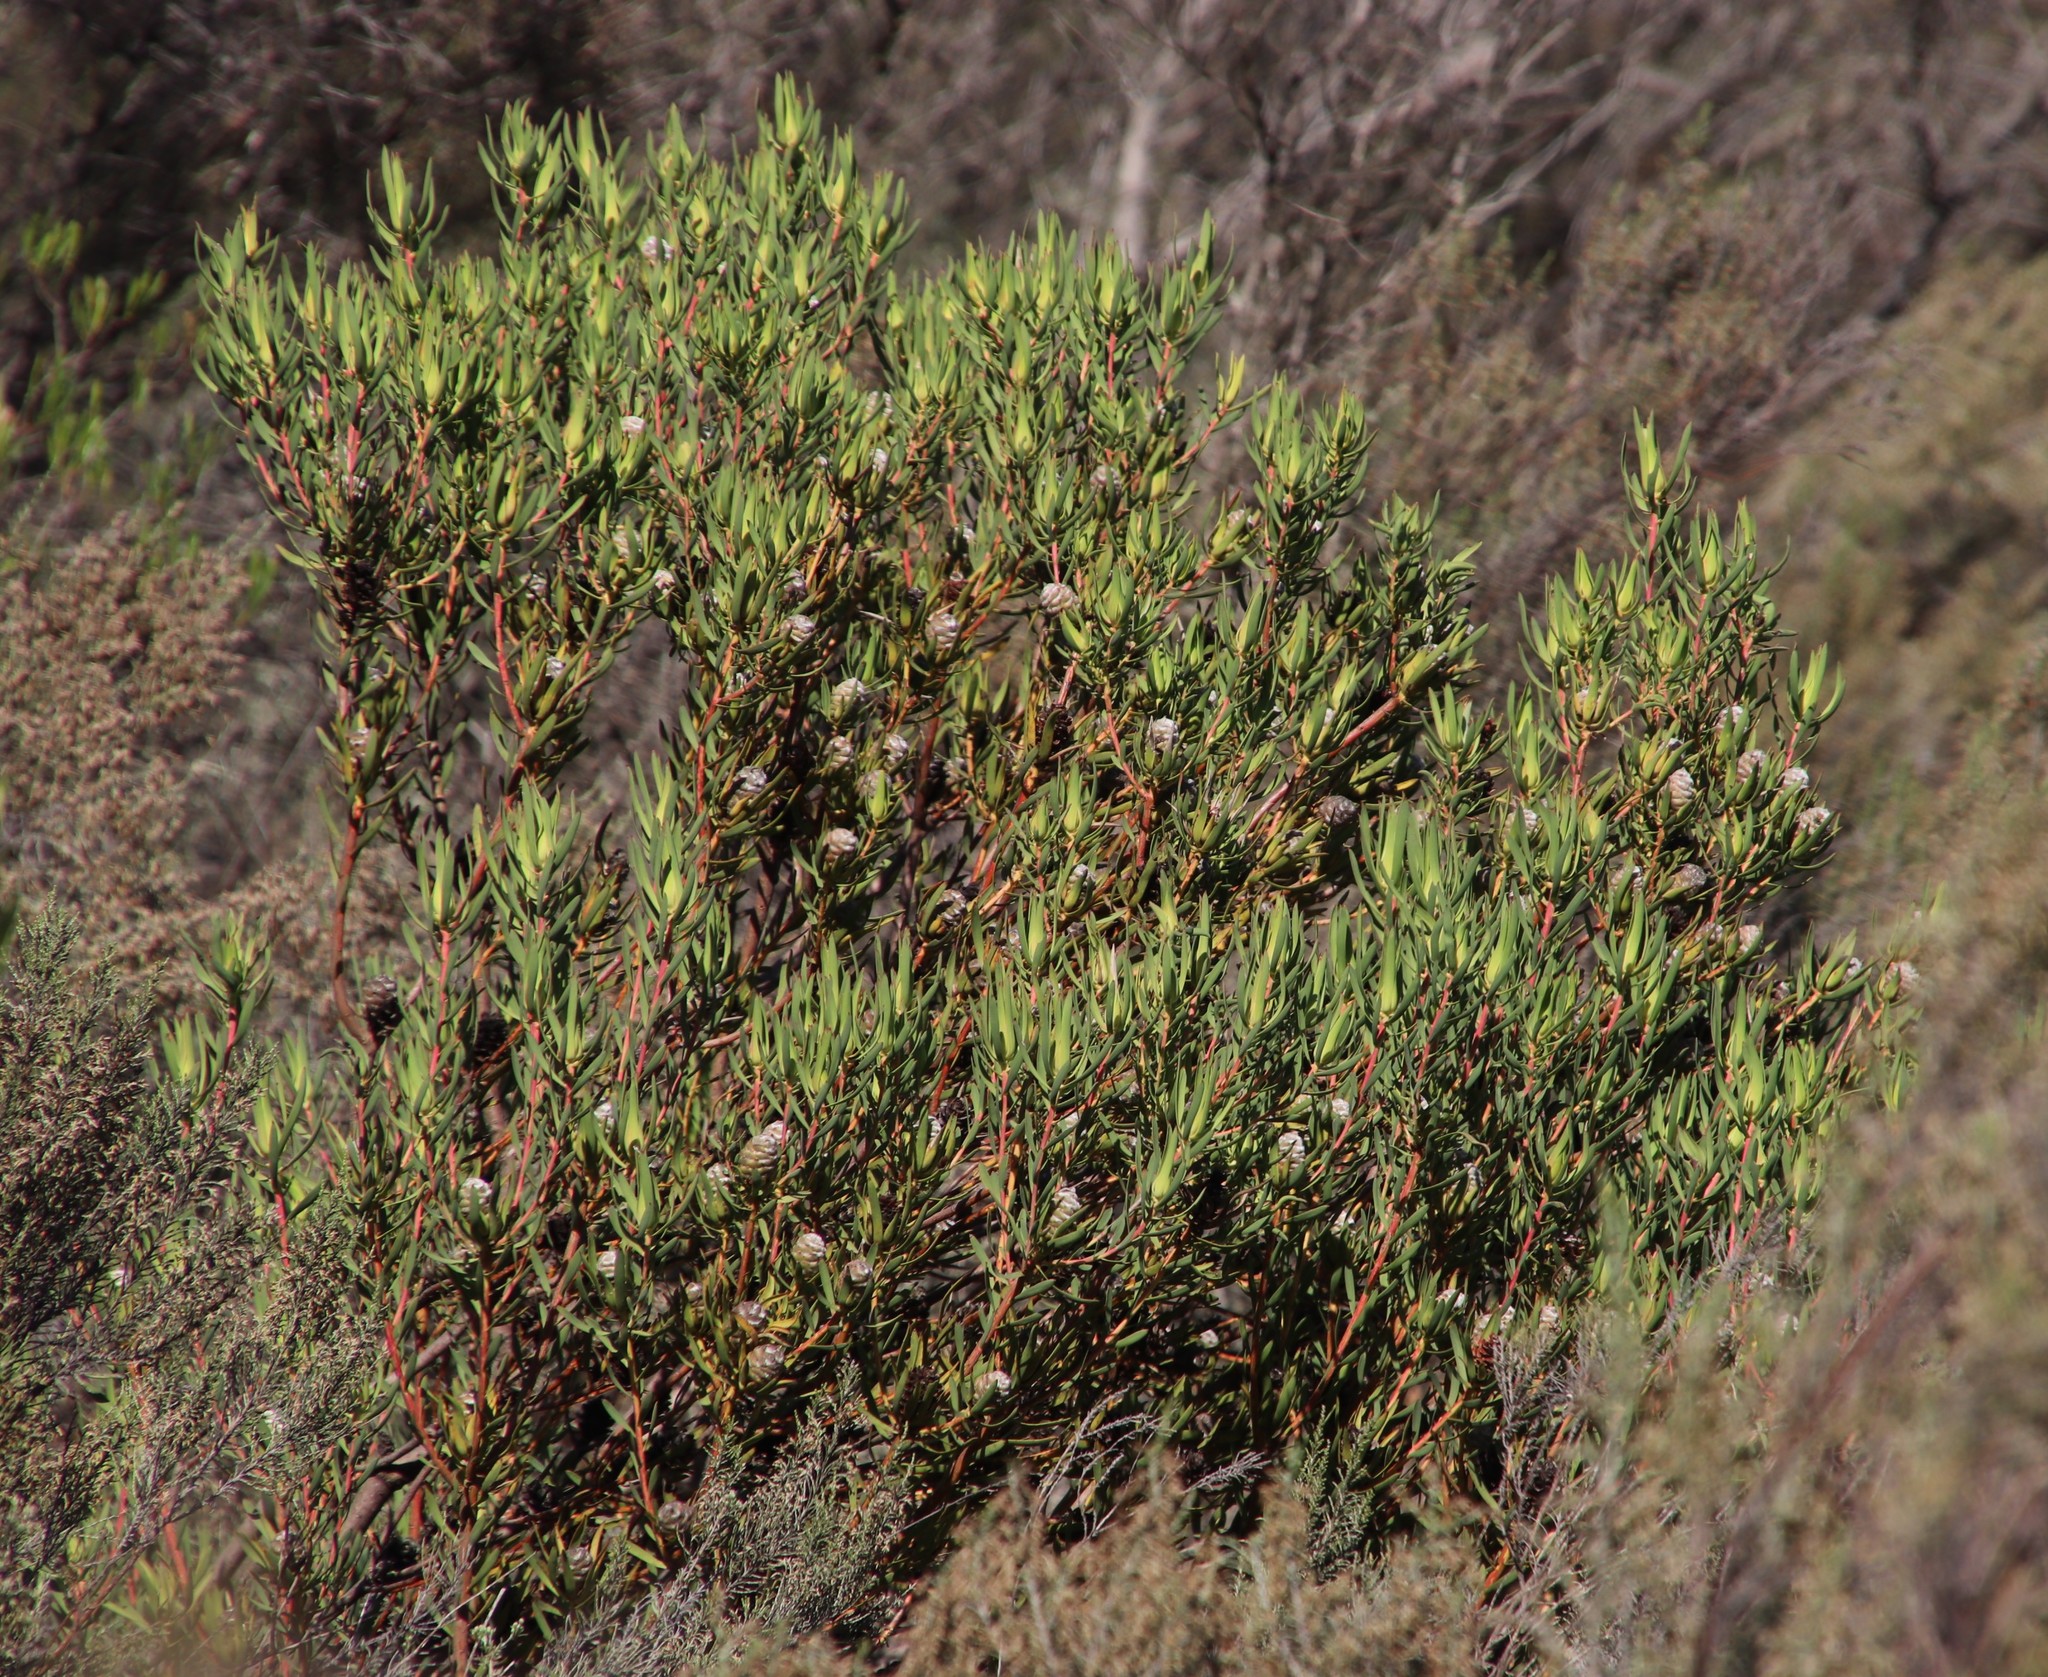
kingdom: Plantae
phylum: Tracheophyta
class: Magnoliopsida
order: Proteales
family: Proteaceae
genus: Leucadendron
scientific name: Leucadendron lanigerum
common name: Shale conebush
